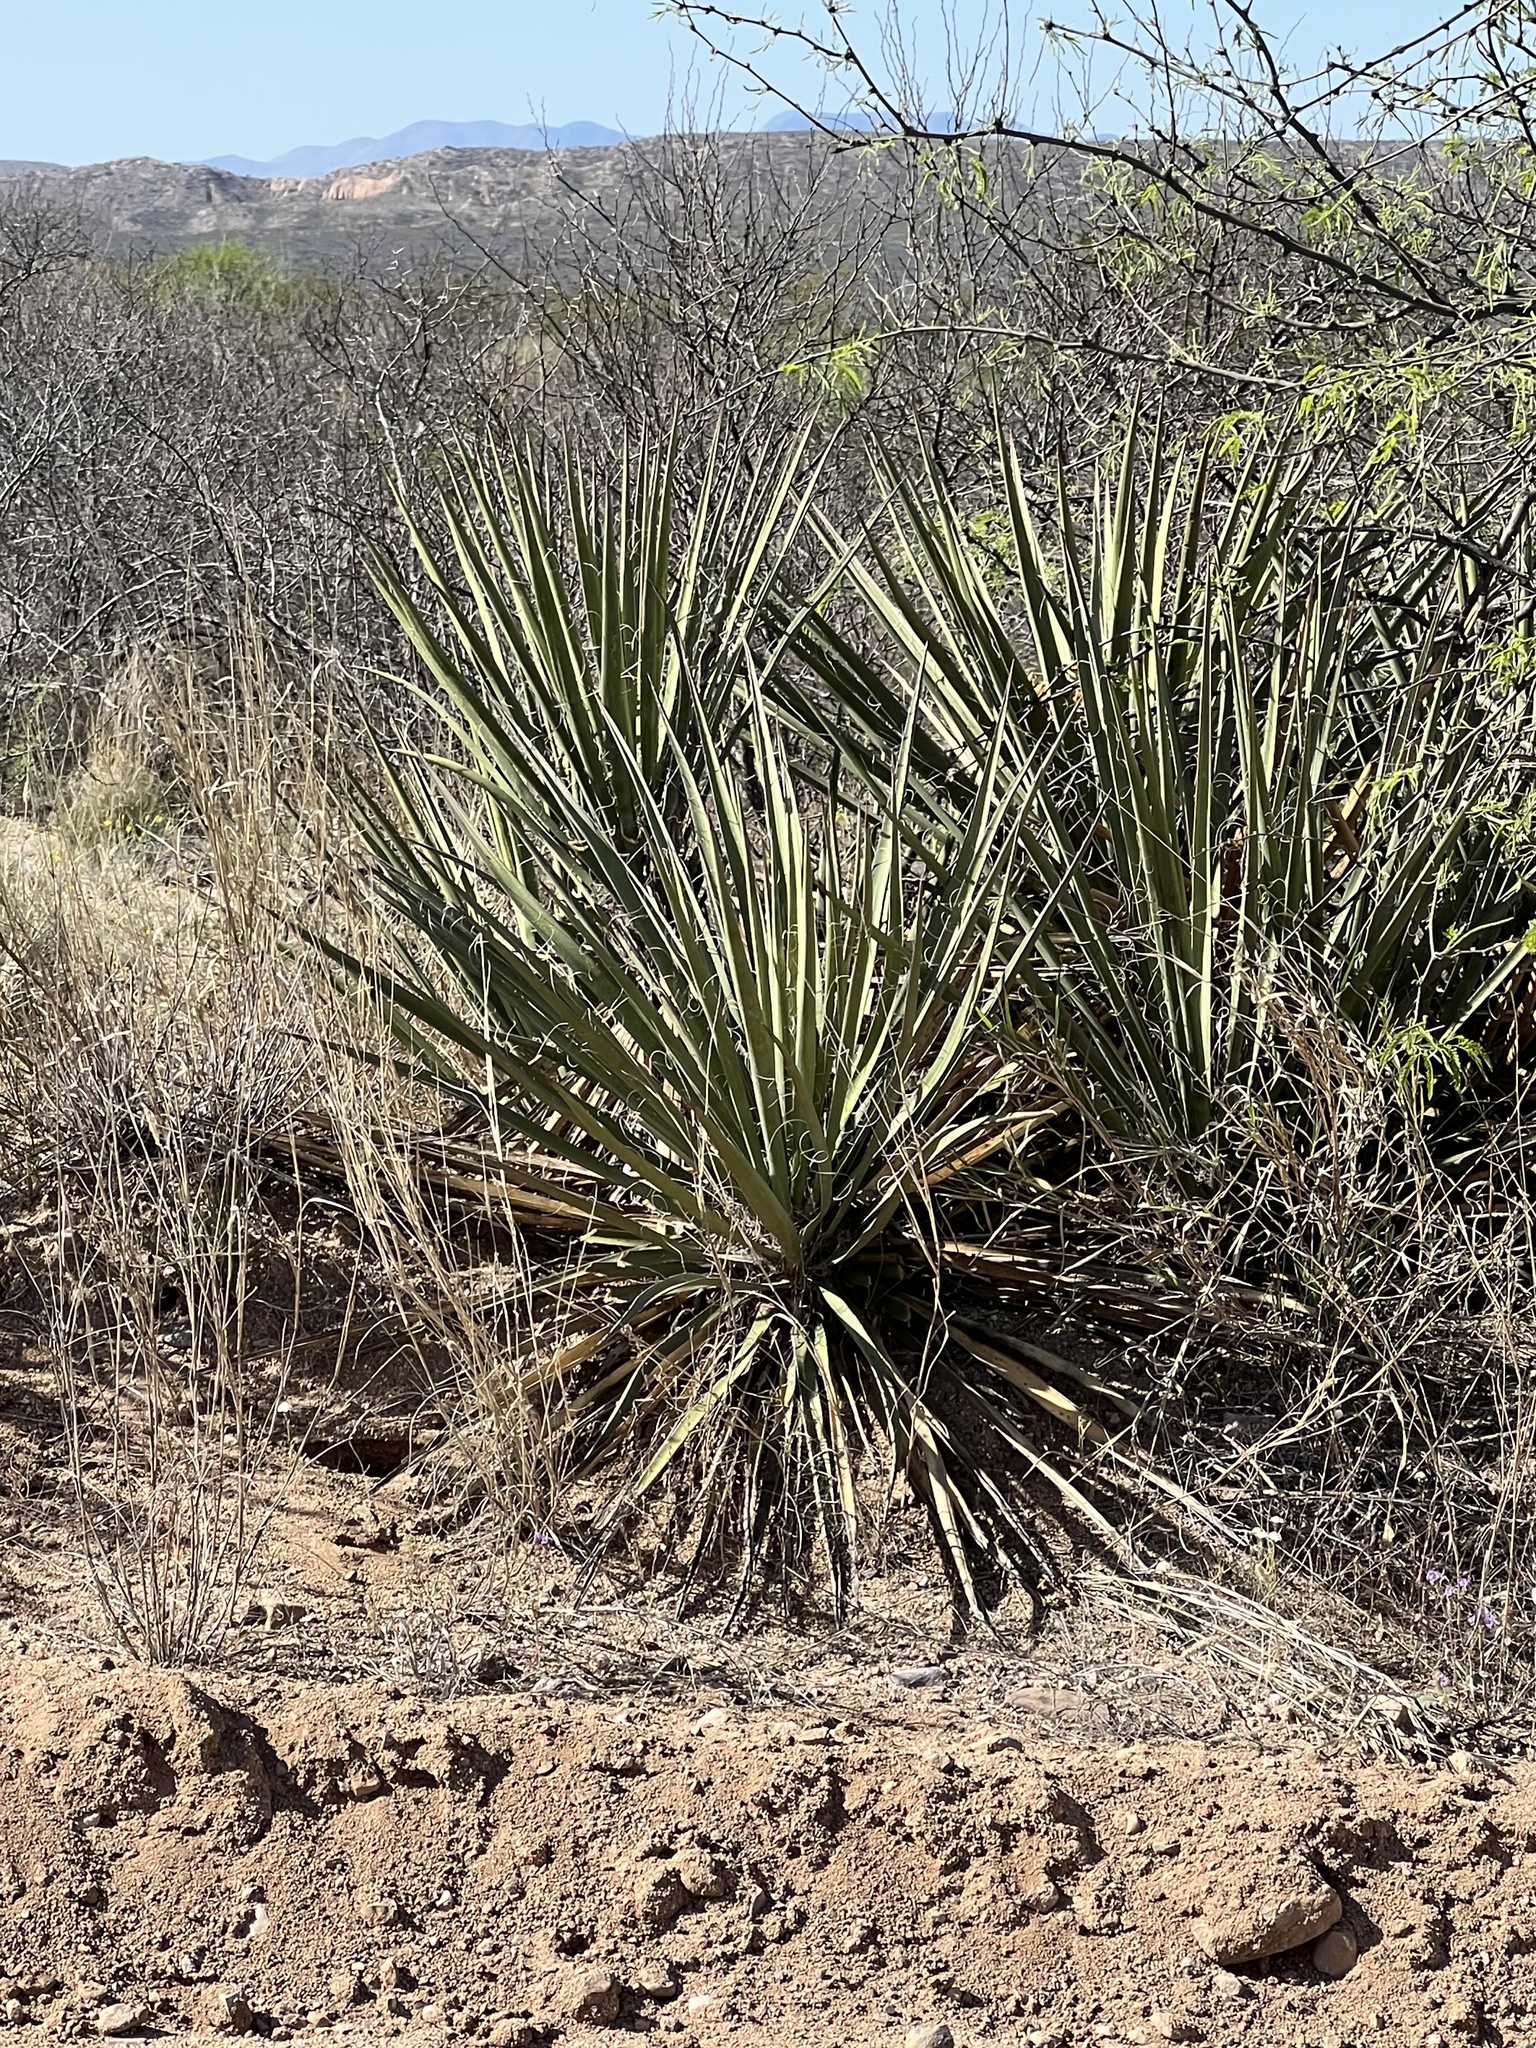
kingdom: Plantae
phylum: Tracheophyta
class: Liliopsida
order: Asparagales
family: Asparagaceae
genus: Yucca
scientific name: Yucca baccata
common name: Banana yucca
